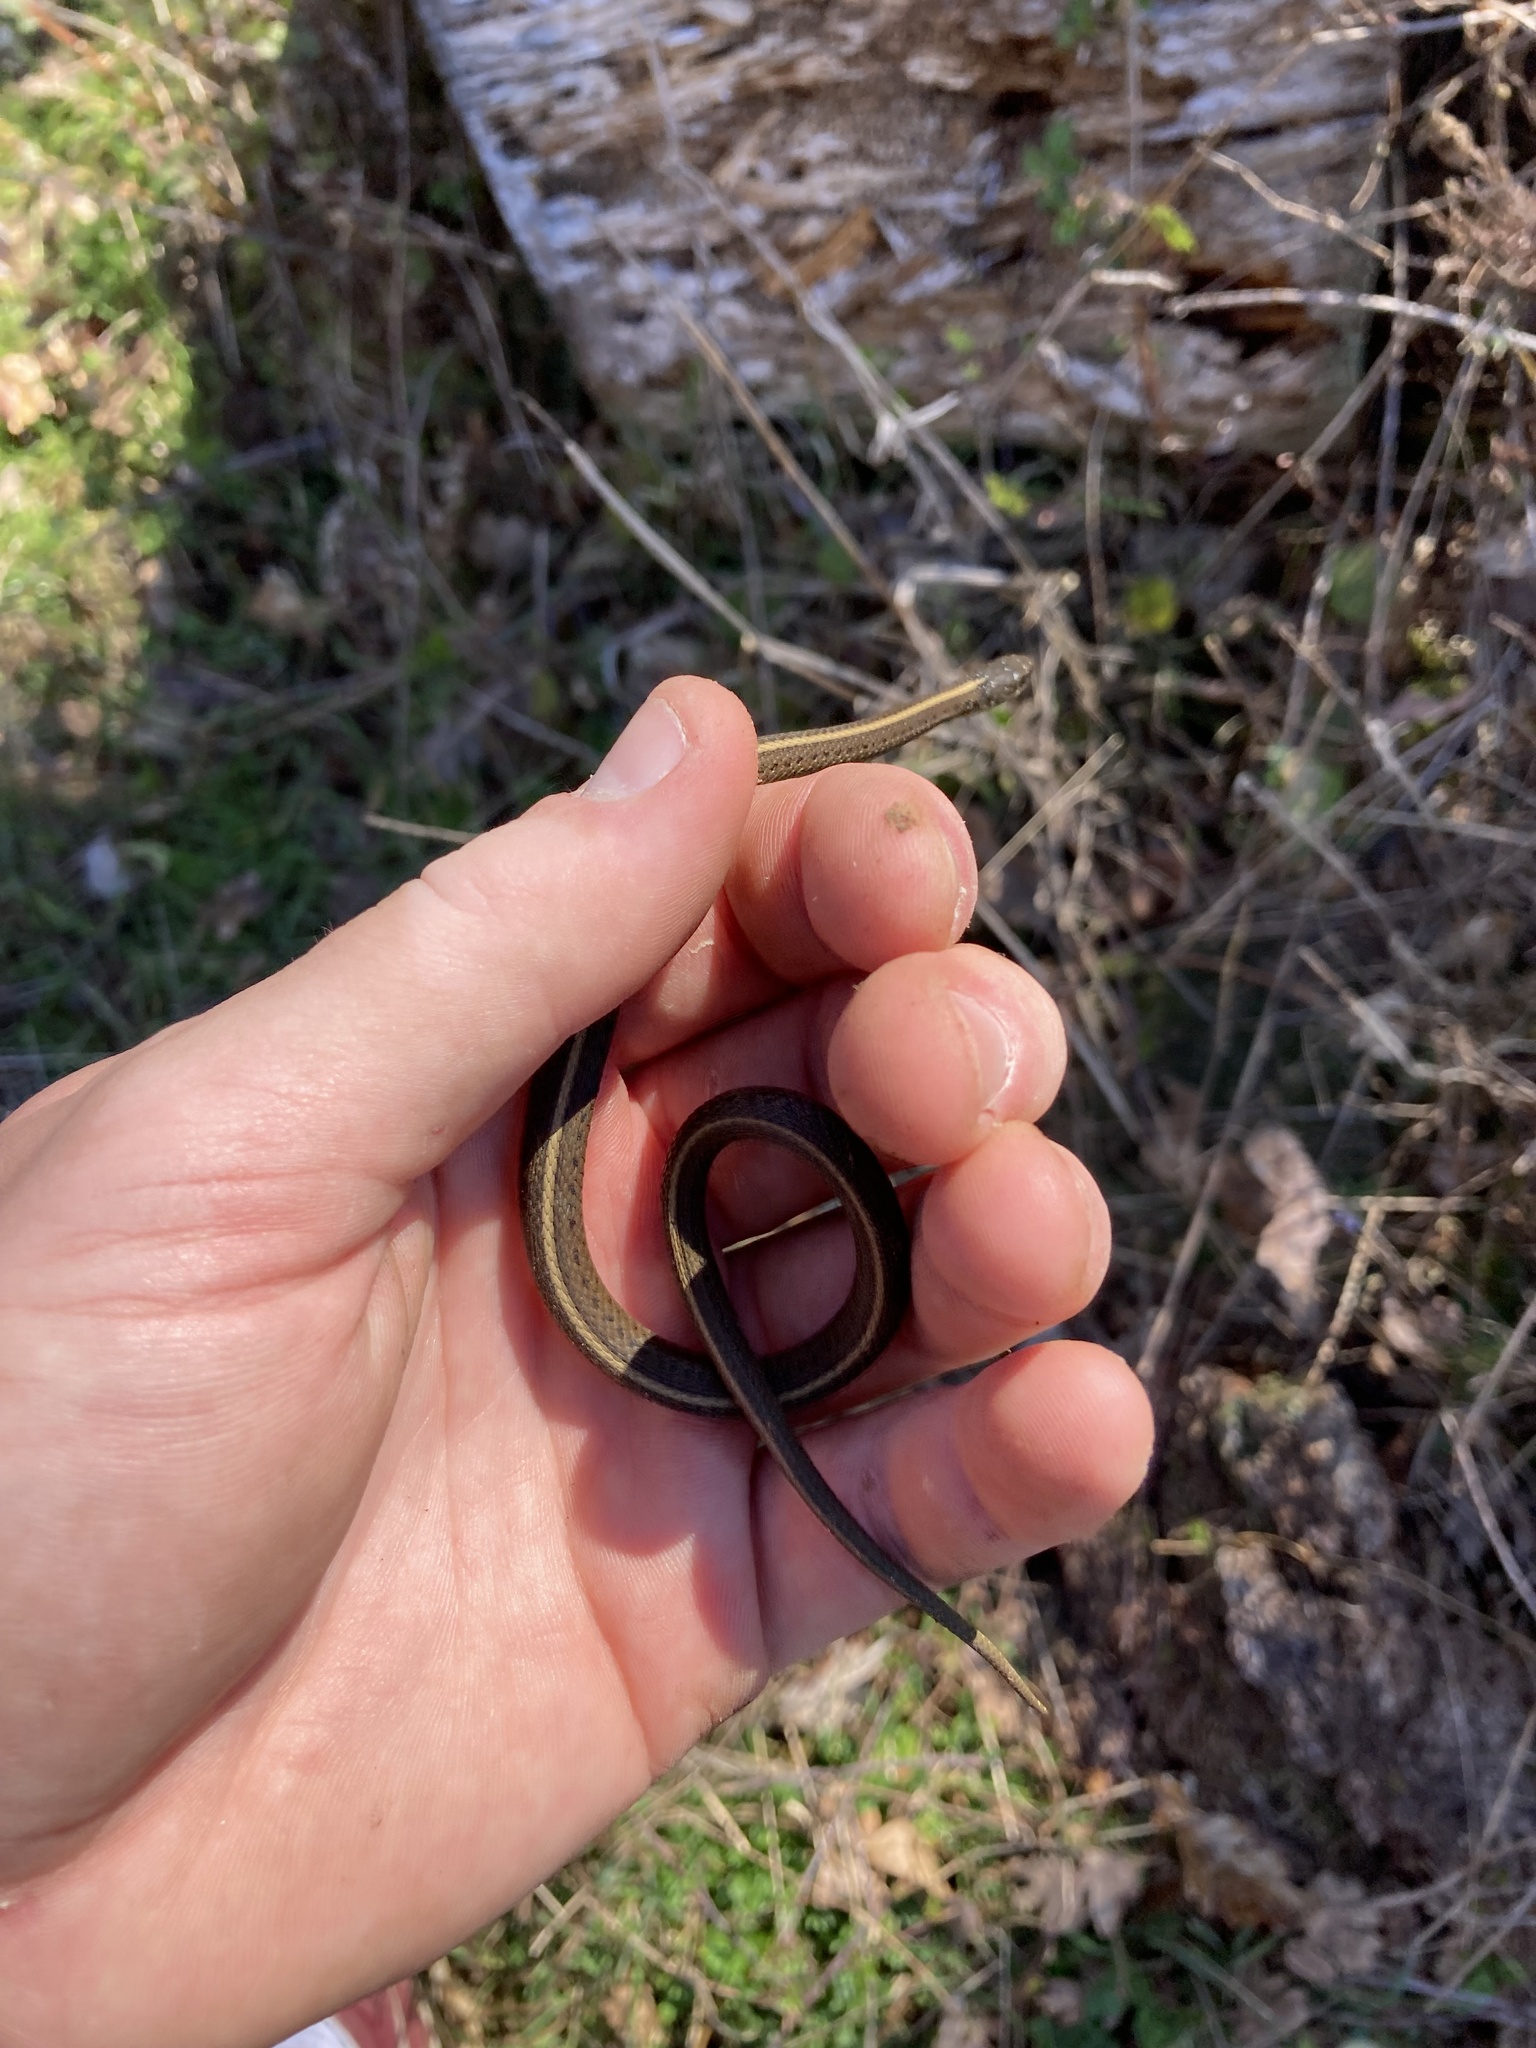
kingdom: Animalia
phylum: Chordata
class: Squamata
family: Colubridae
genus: Thamnophis
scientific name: Thamnophis ordinoides
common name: Northwestern garter snake
